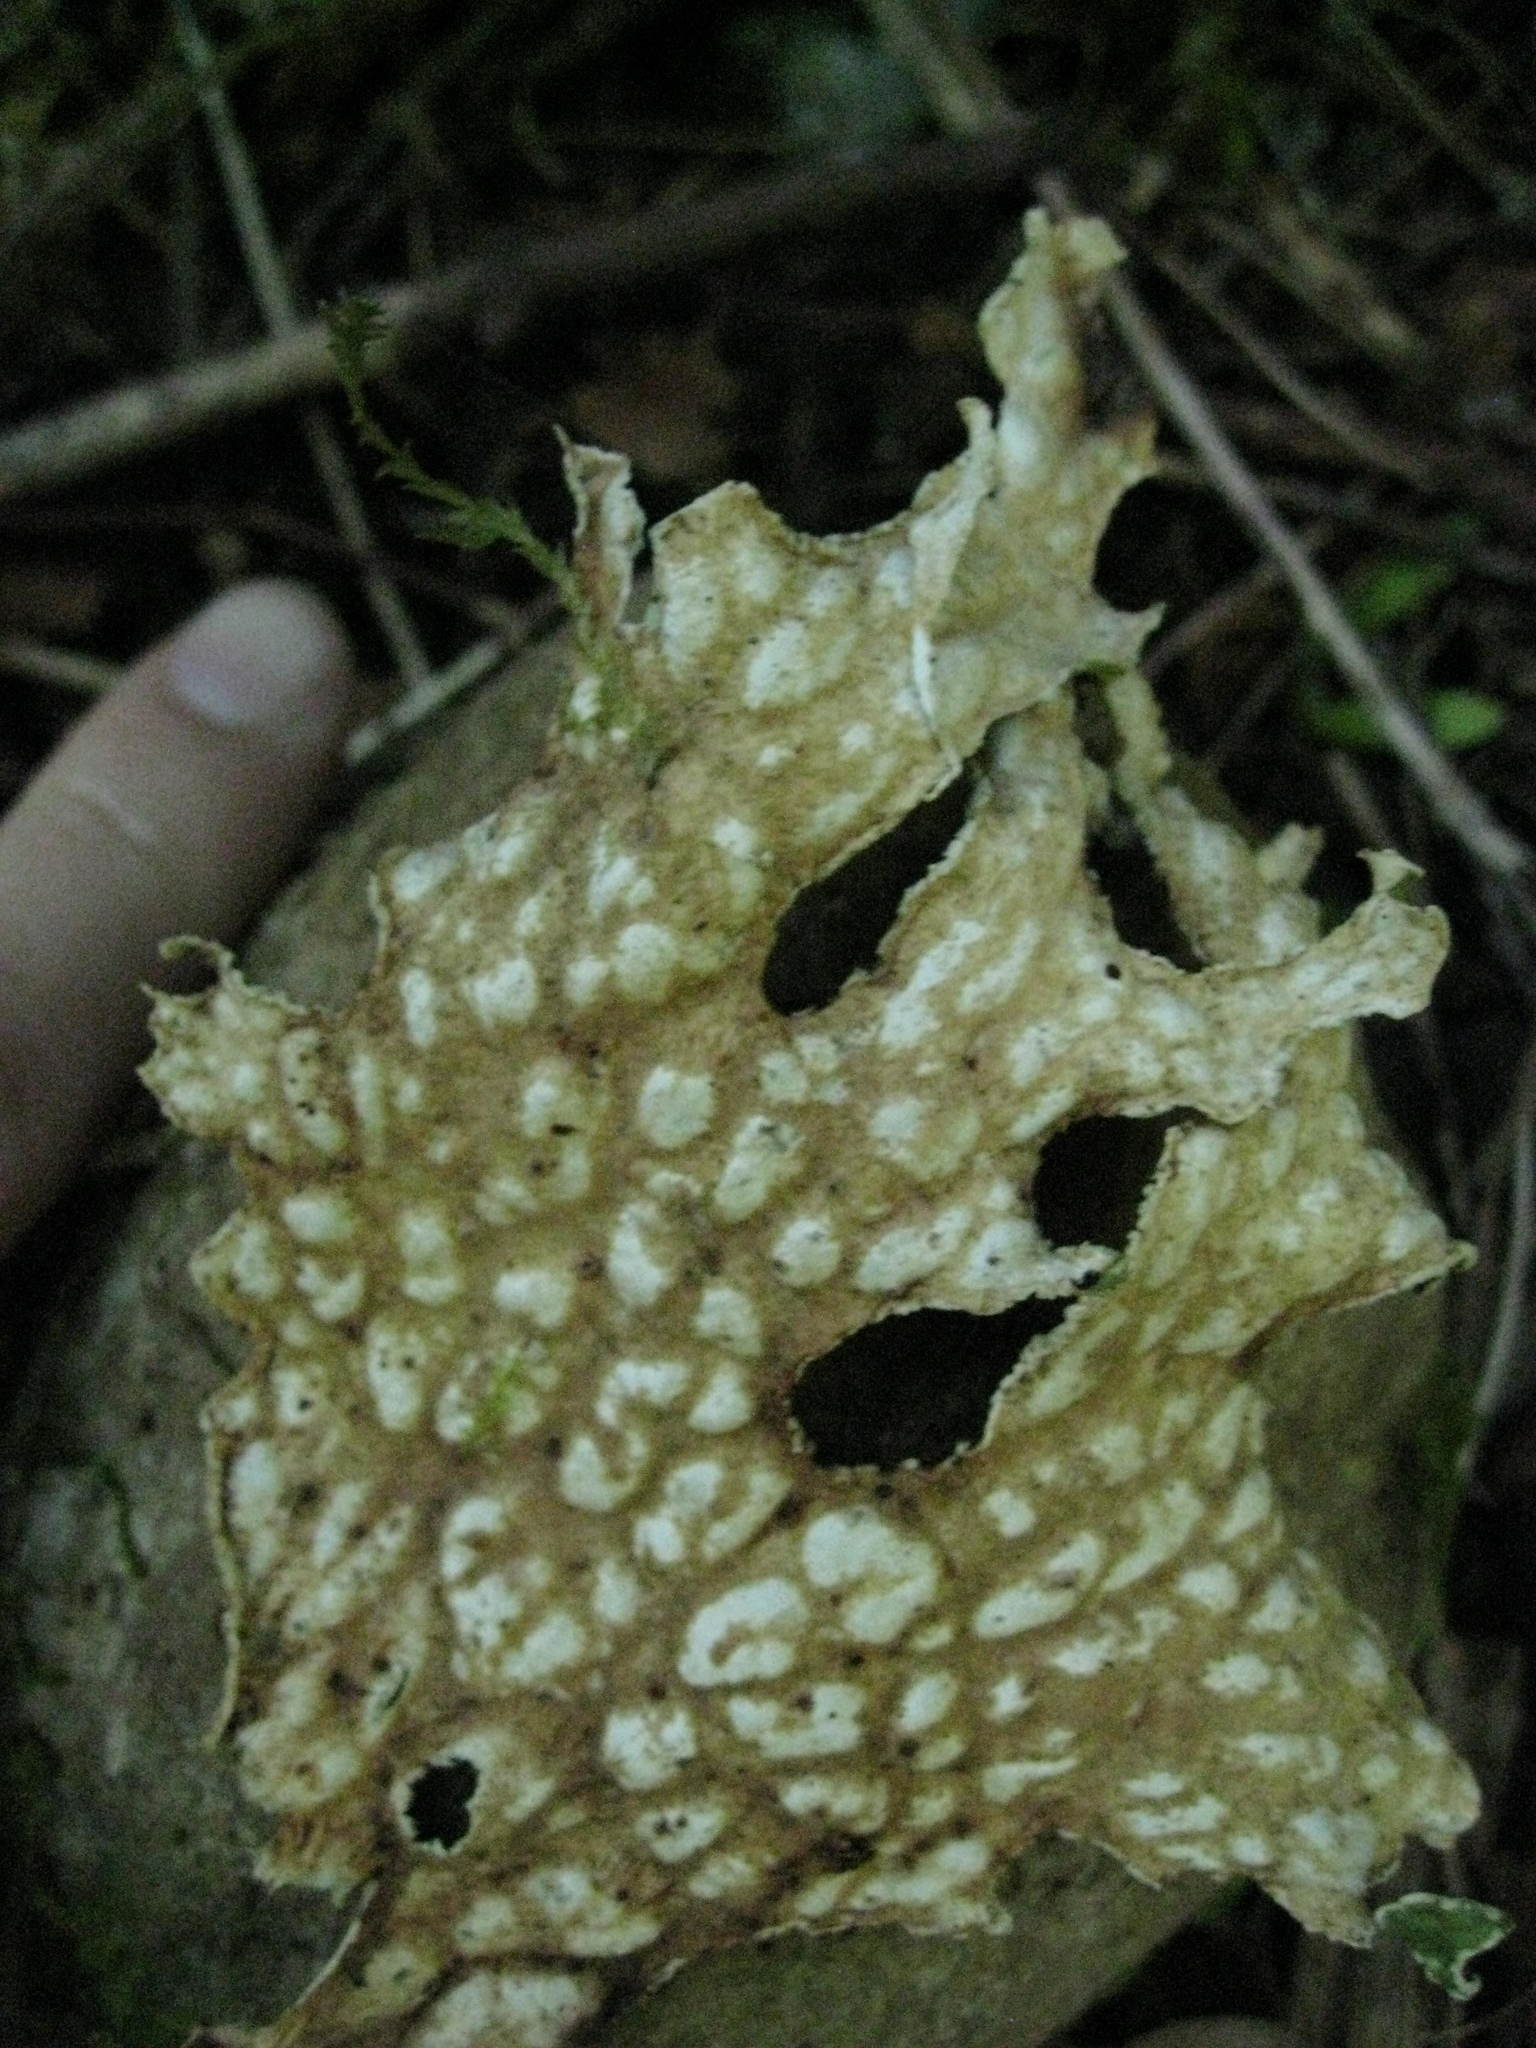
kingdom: Fungi
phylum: Ascomycota
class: Lecanoromycetes
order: Peltigerales
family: Lobariaceae
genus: Lobaria
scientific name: Lobaria pulmonaria
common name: Lungwort
